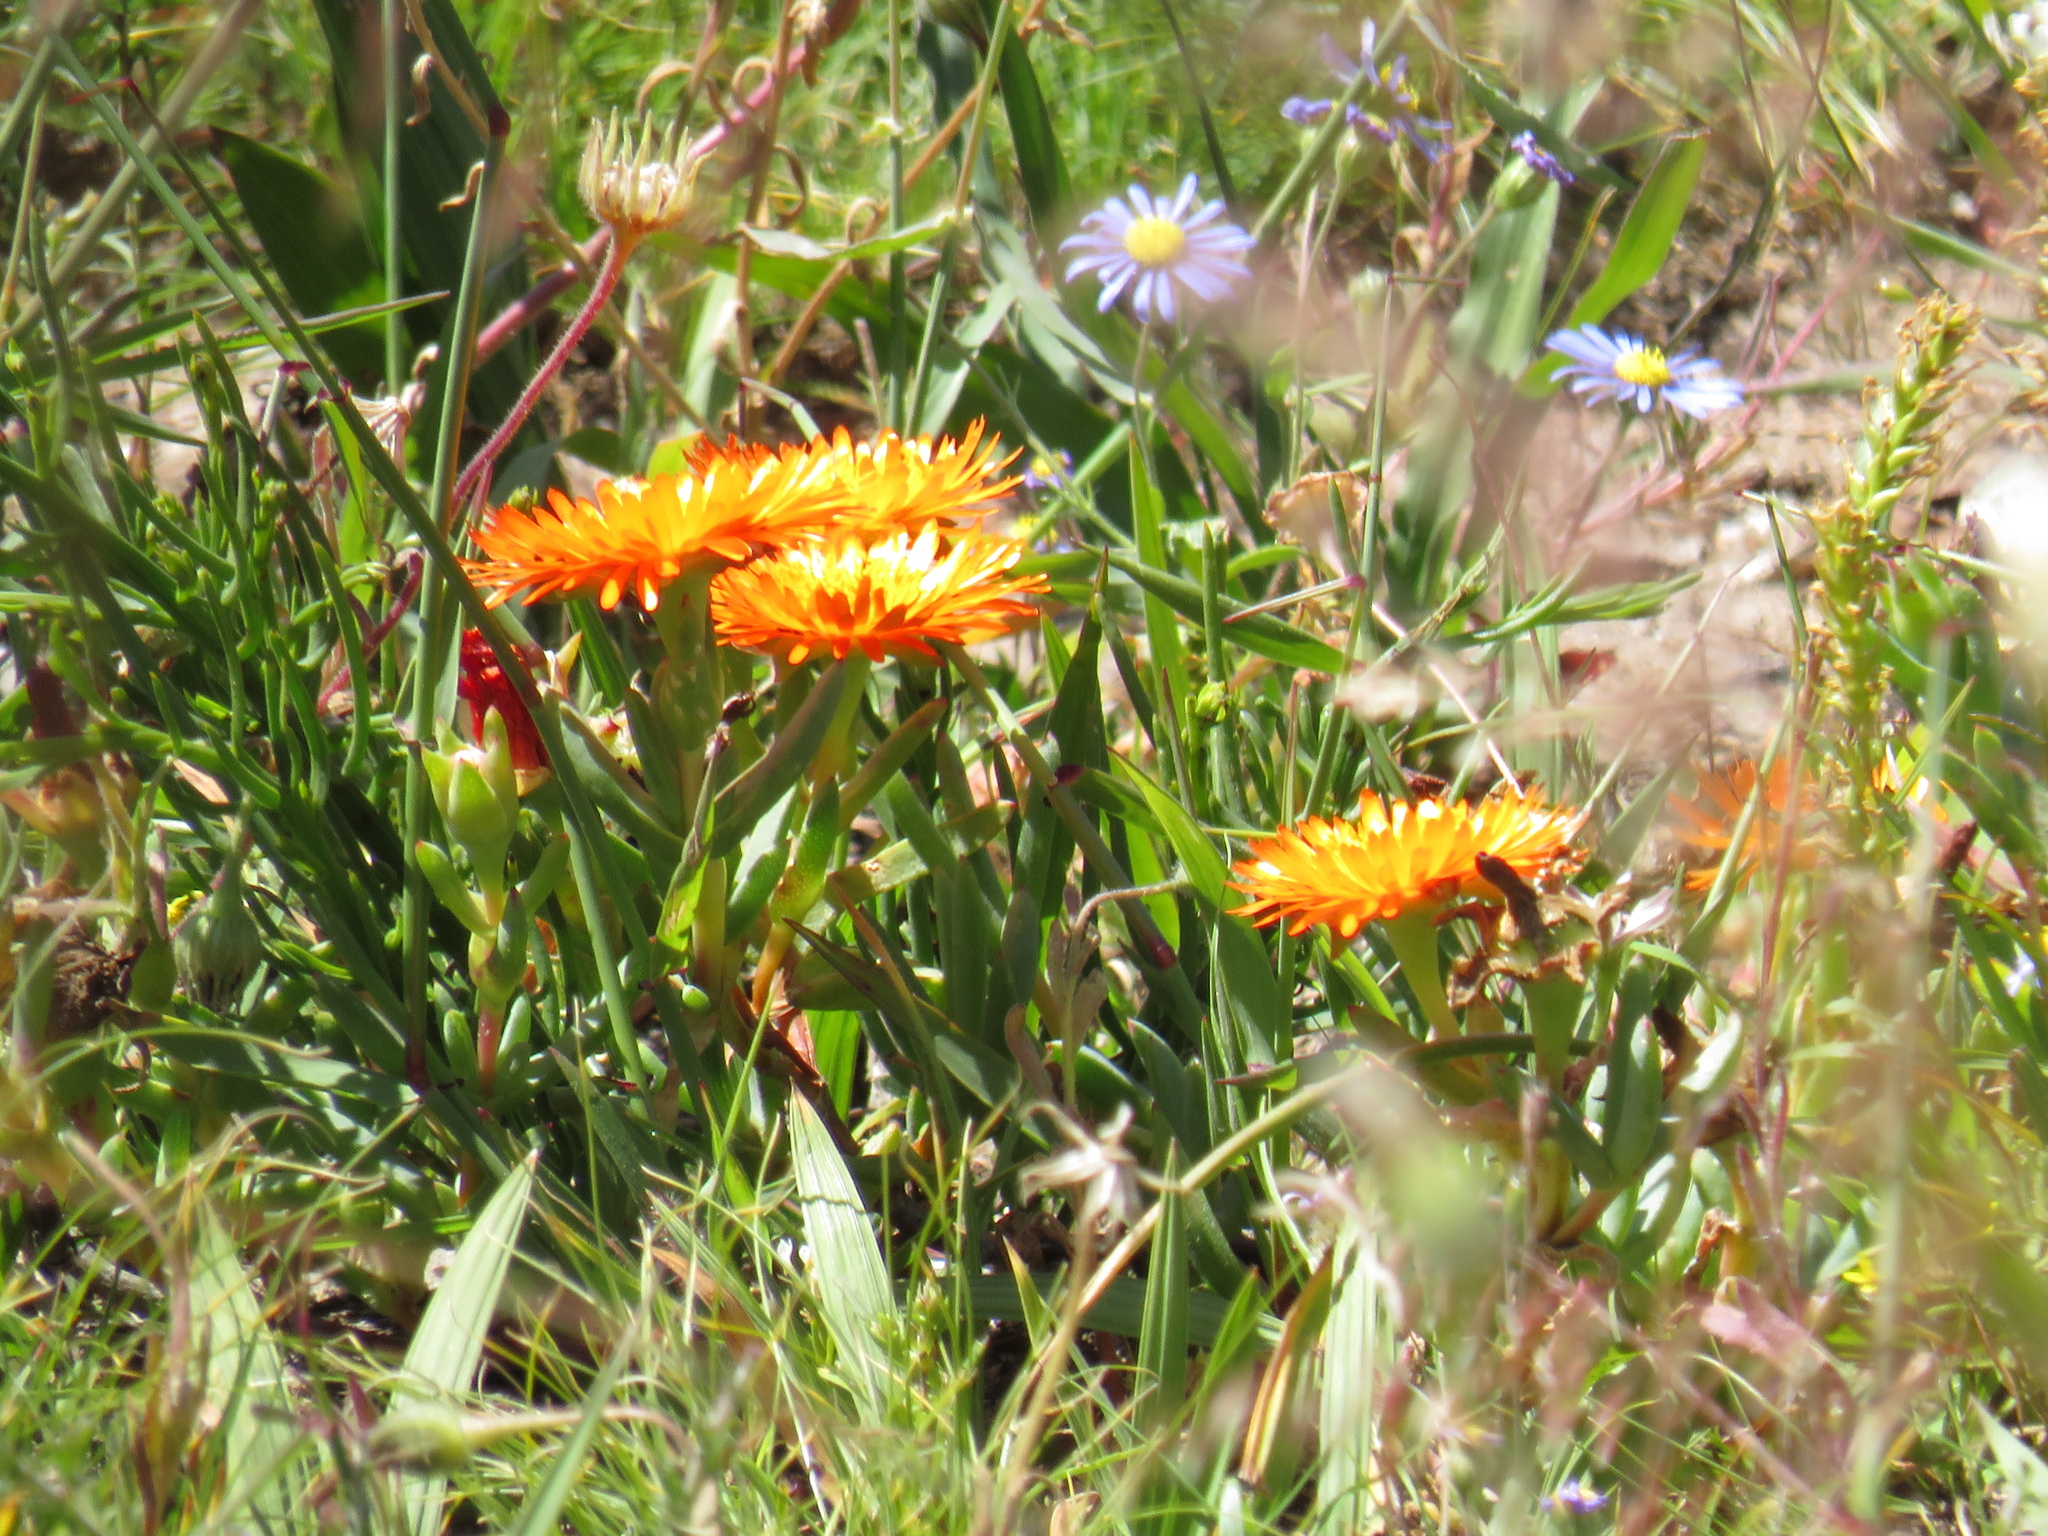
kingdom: Plantae
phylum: Tracheophyta
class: Magnoliopsida
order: Caryophyllales
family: Aizoaceae
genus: Lampranthus
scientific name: Lampranthus aureus
